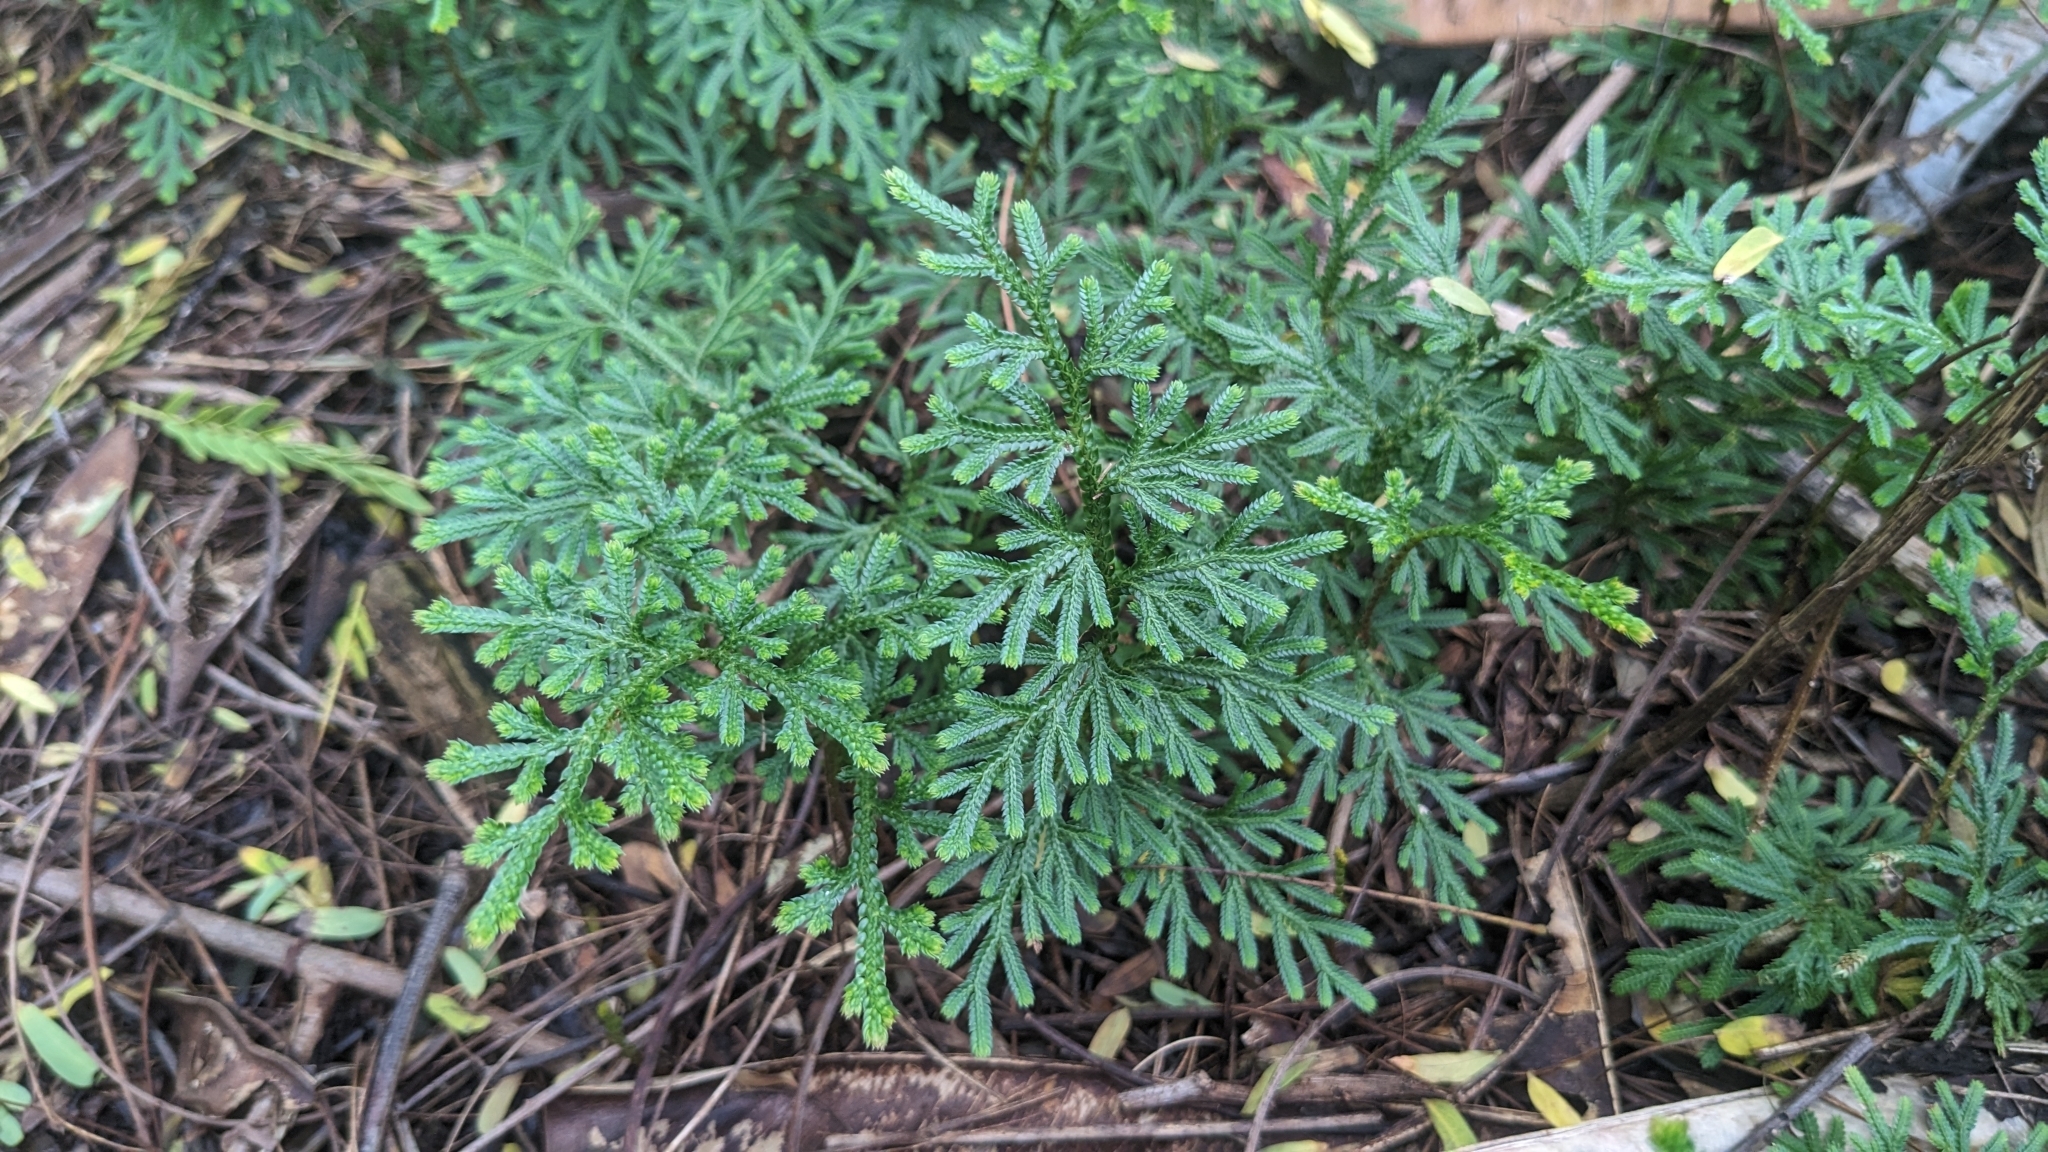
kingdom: Plantae
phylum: Tracheophyta
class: Lycopodiopsida
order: Selaginellales
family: Selaginellaceae
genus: Selaginella
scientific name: Selaginella involvens
